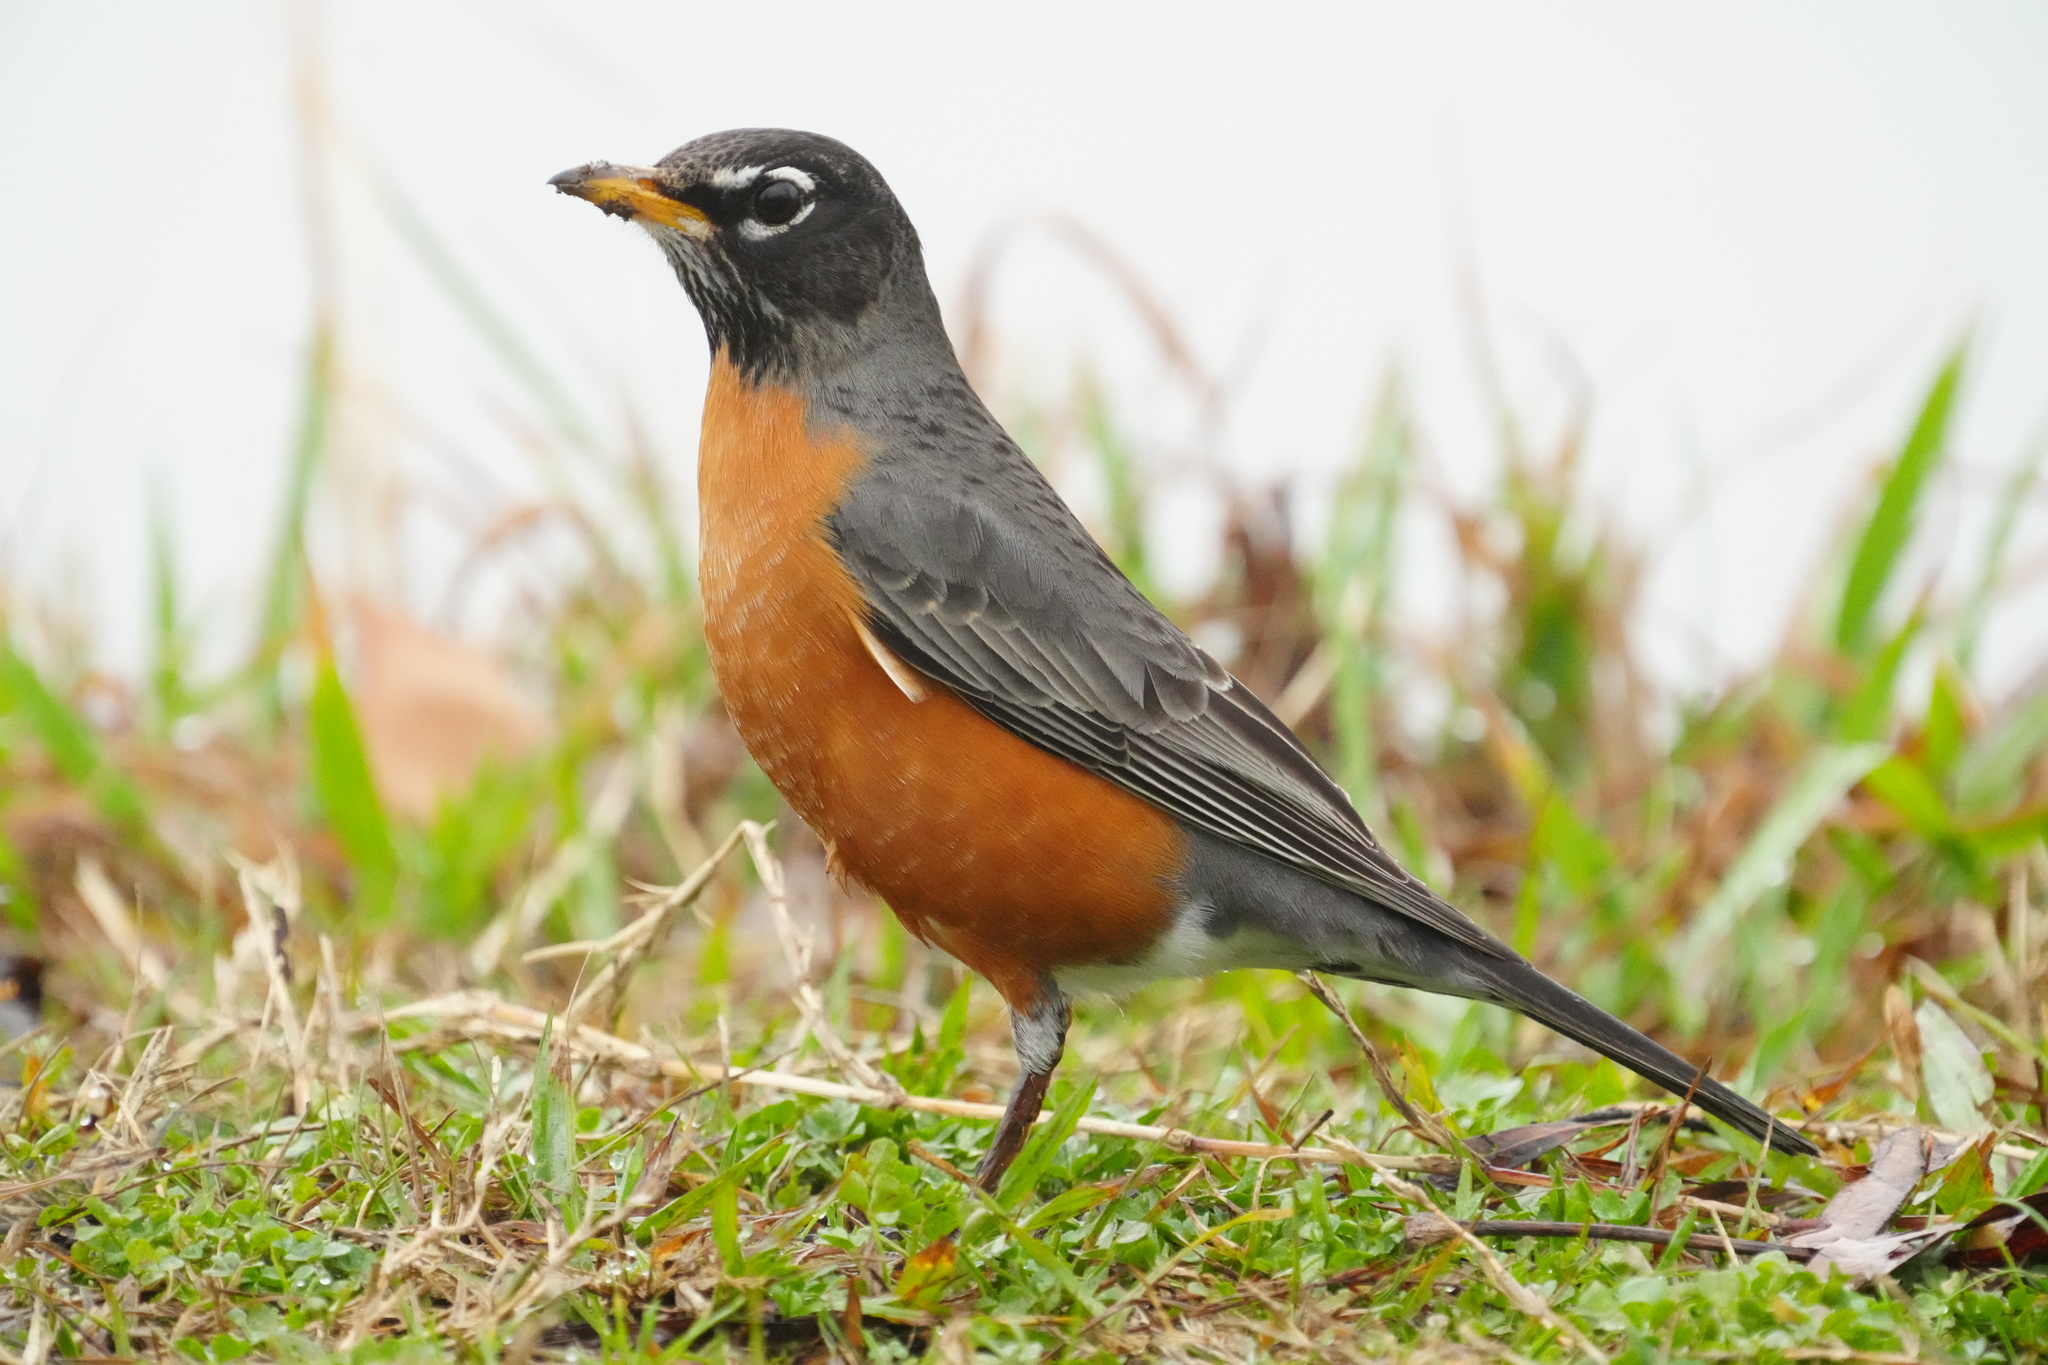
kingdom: Animalia
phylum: Chordata
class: Aves
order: Passeriformes
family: Turdidae
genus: Turdus
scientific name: Turdus migratorius
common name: American robin
